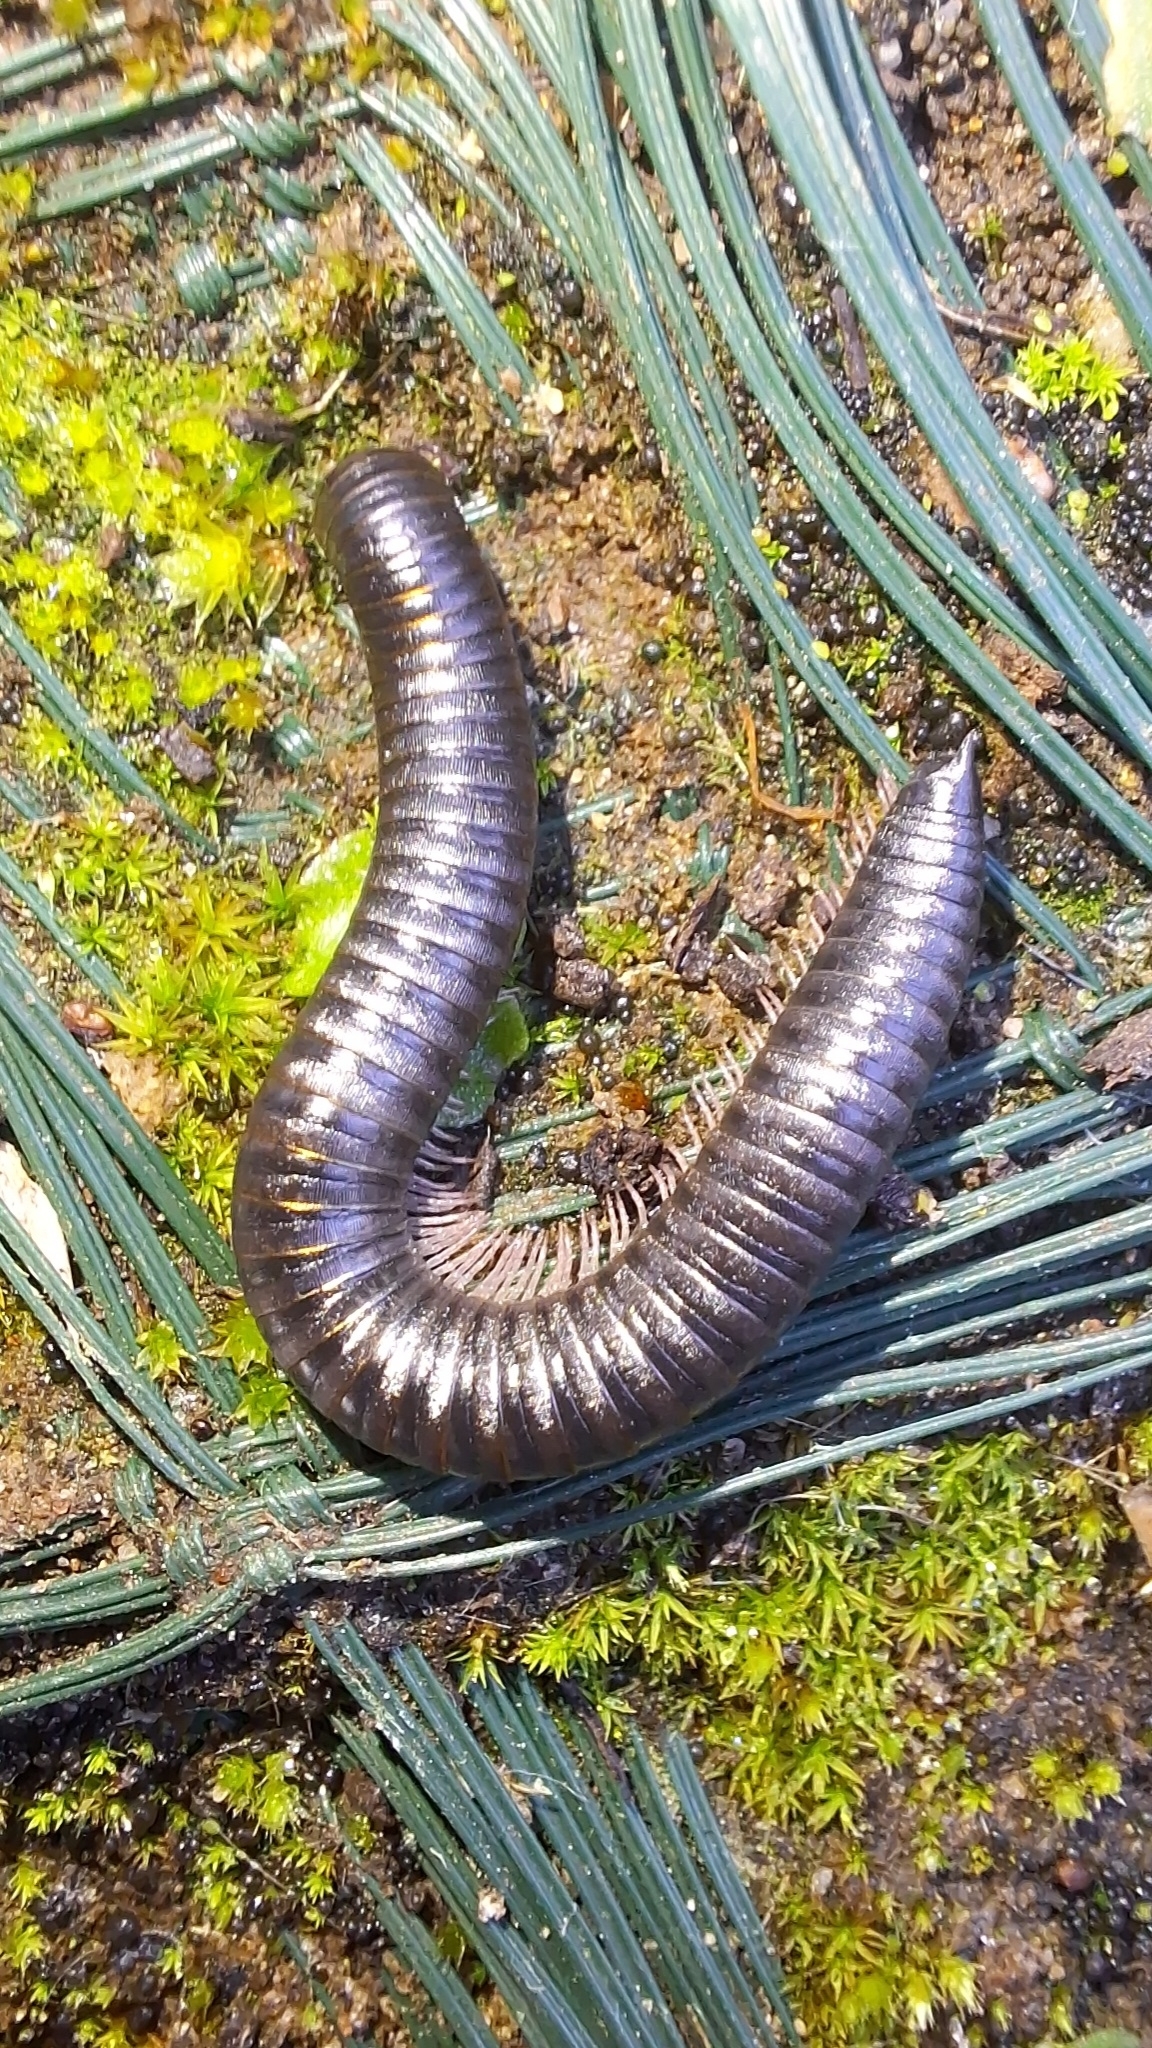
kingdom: Animalia
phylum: Arthropoda
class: Diplopoda
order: Julida
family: Julidae
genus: Ommatoiulus
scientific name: Ommatoiulus moreleti
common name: Portuguese millipede
